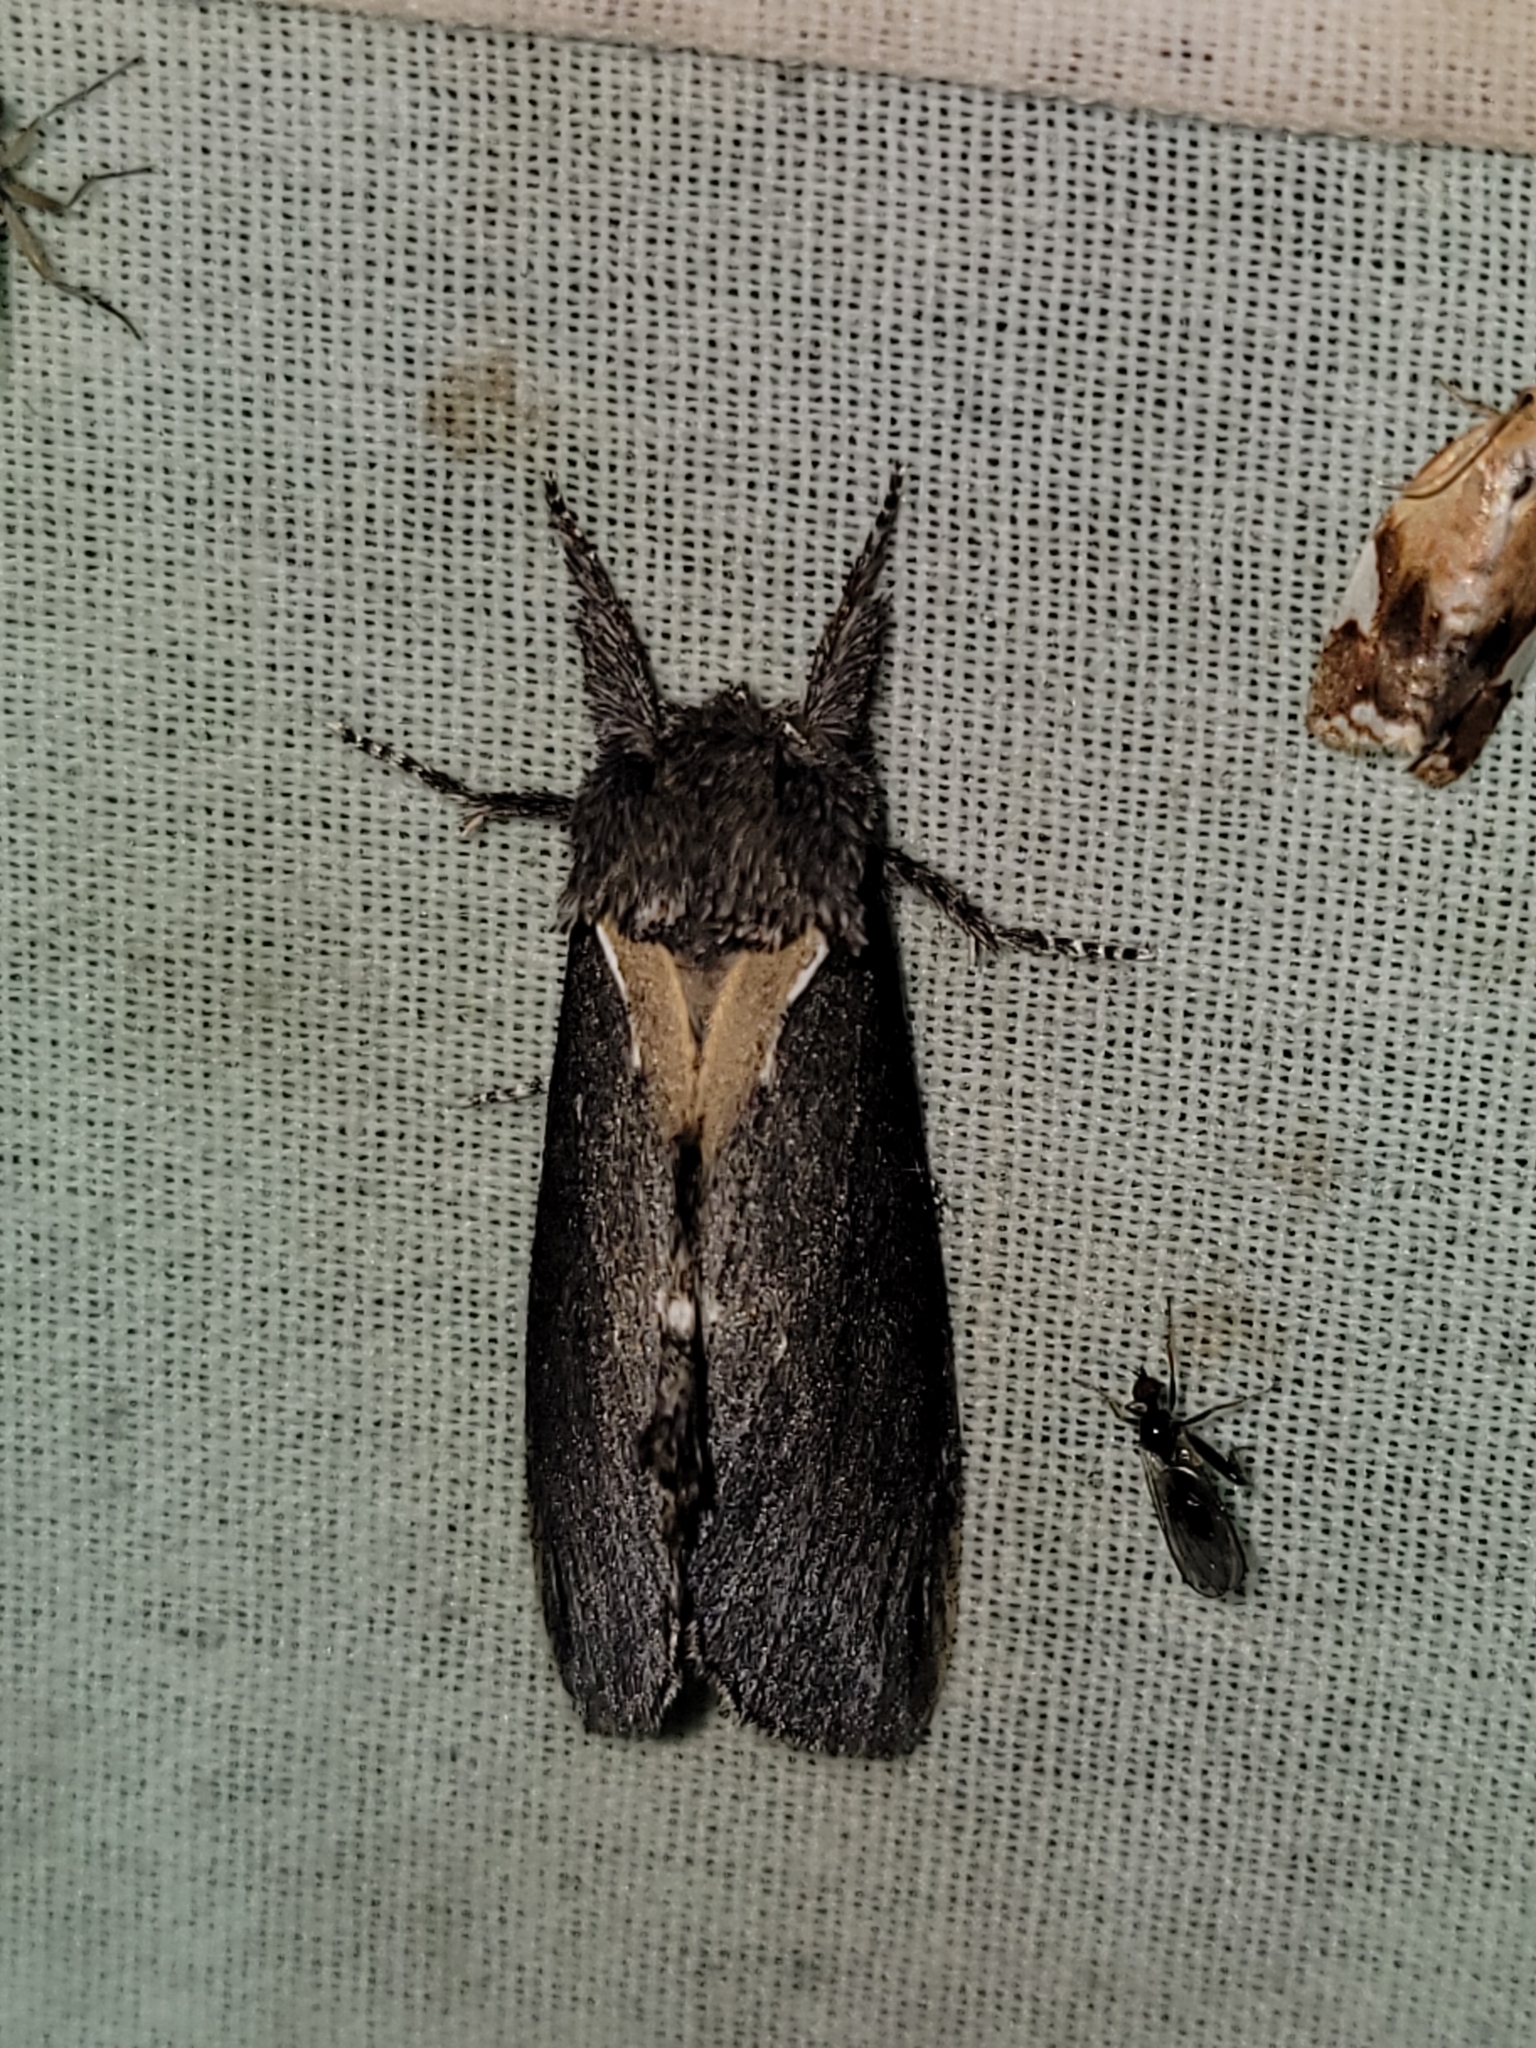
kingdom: Animalia
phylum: Arthropoda
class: Insecta
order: Lepidoptera
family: Notodontidae
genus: Pheosidea
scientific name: Pheosidea elegans
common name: Elegant prominent
